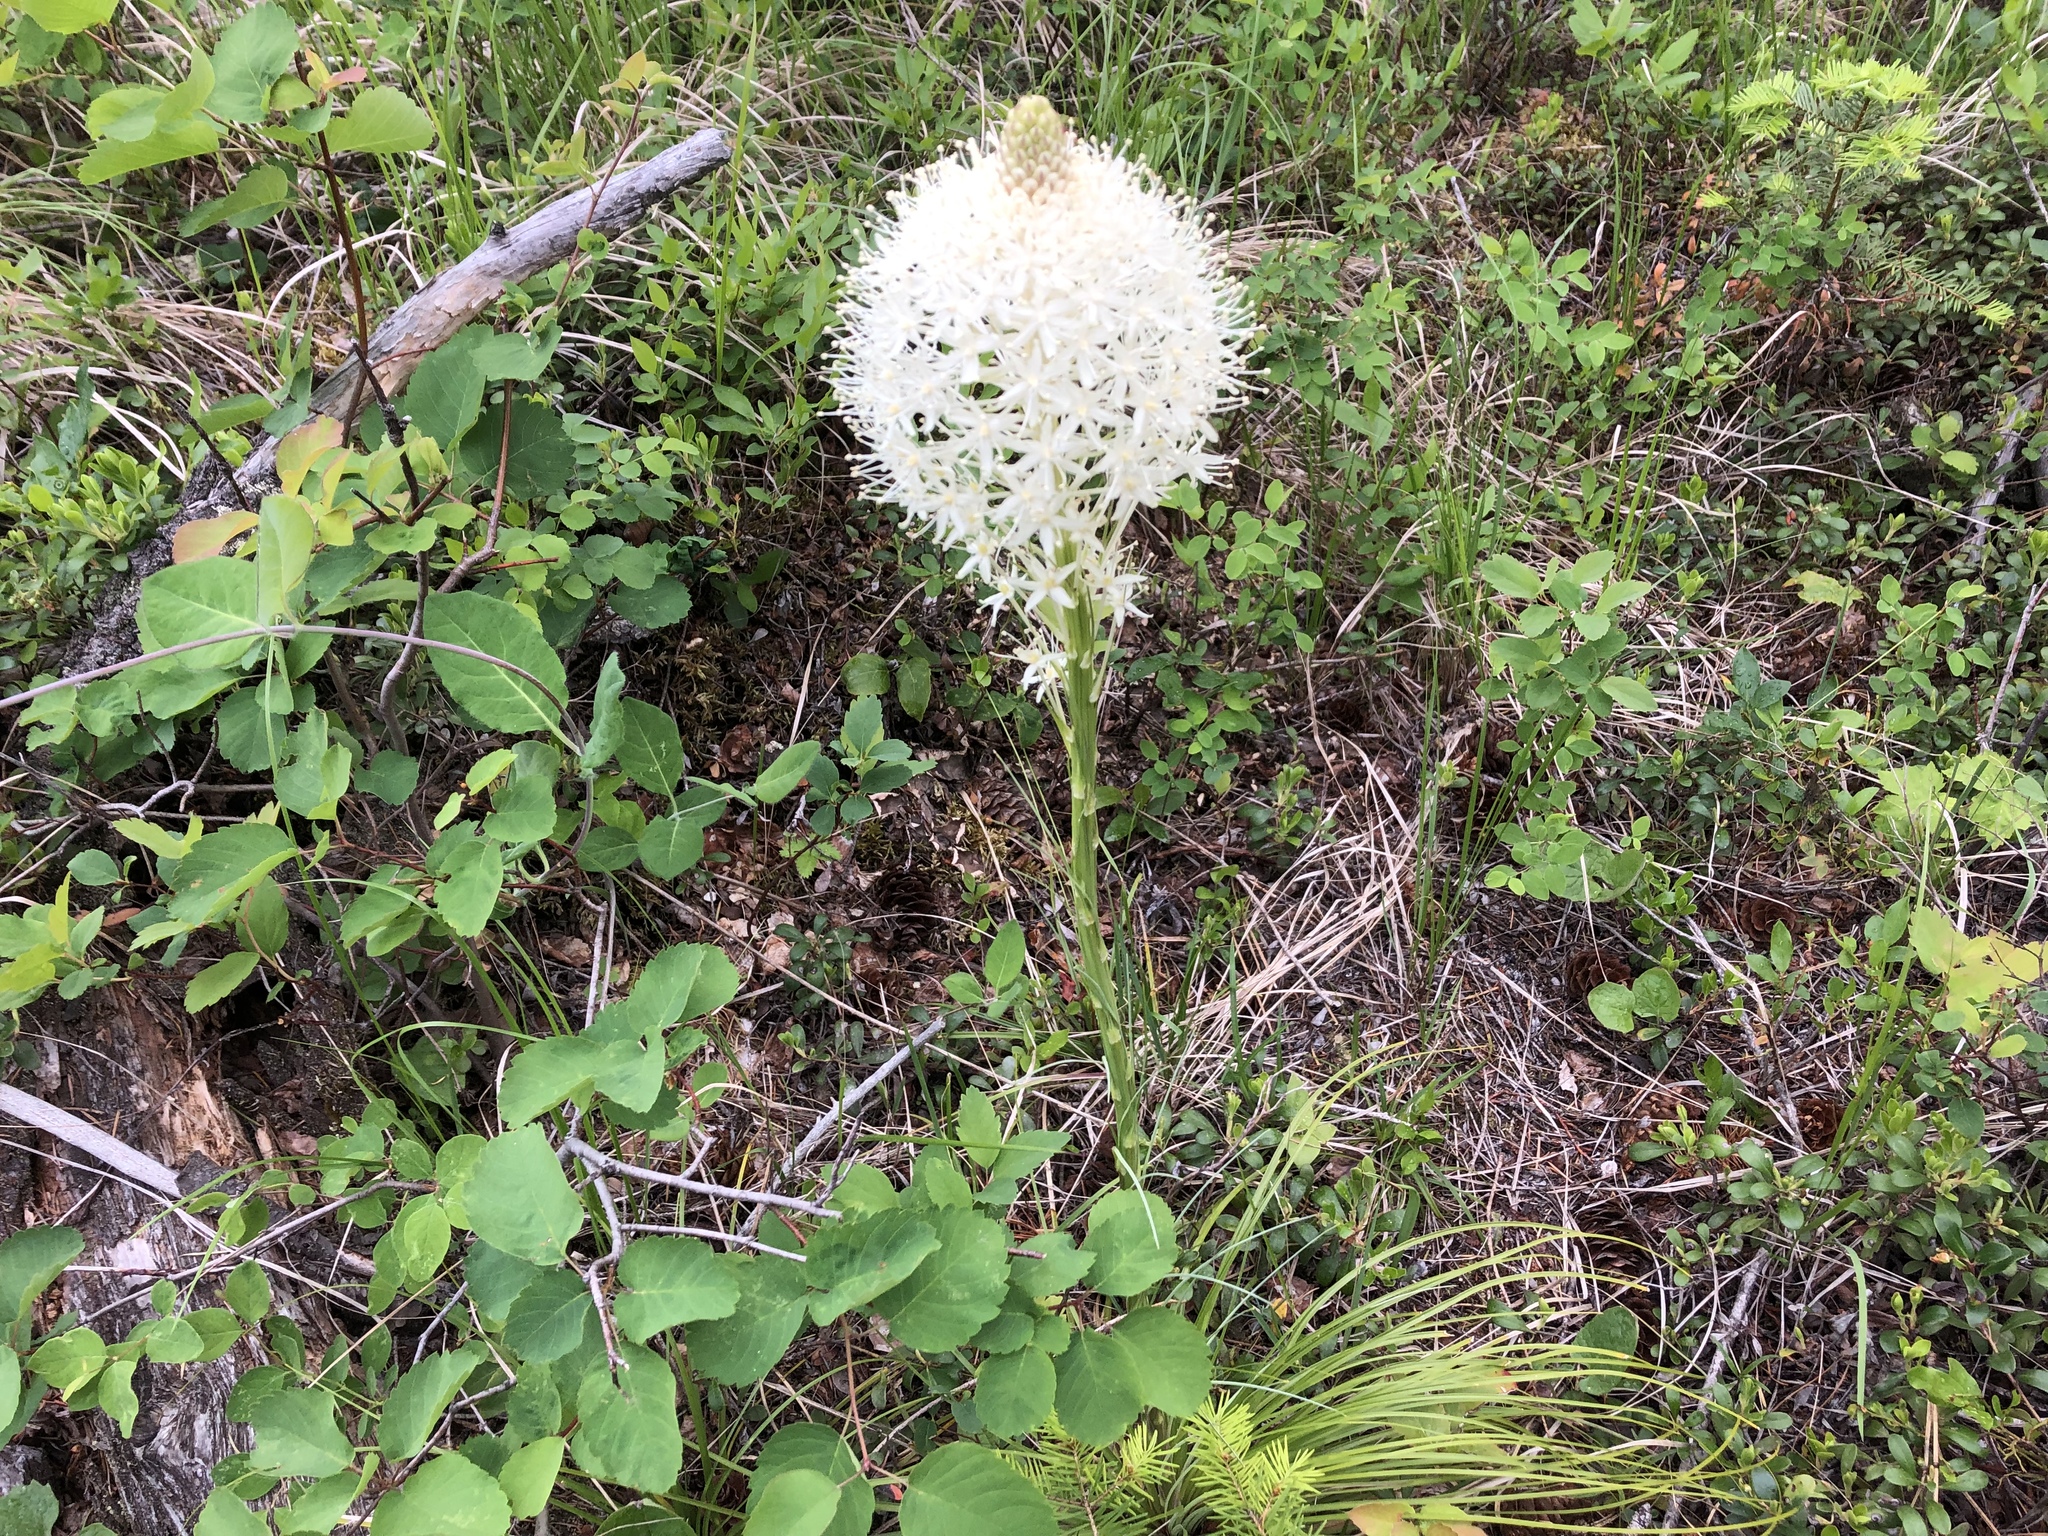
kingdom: Plantae
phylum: Tracheophyta
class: Liliopsida
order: Liliales
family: Melanthiaceae
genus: Xerophyllum
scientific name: Xerophyllum tenax
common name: Bear-grass
